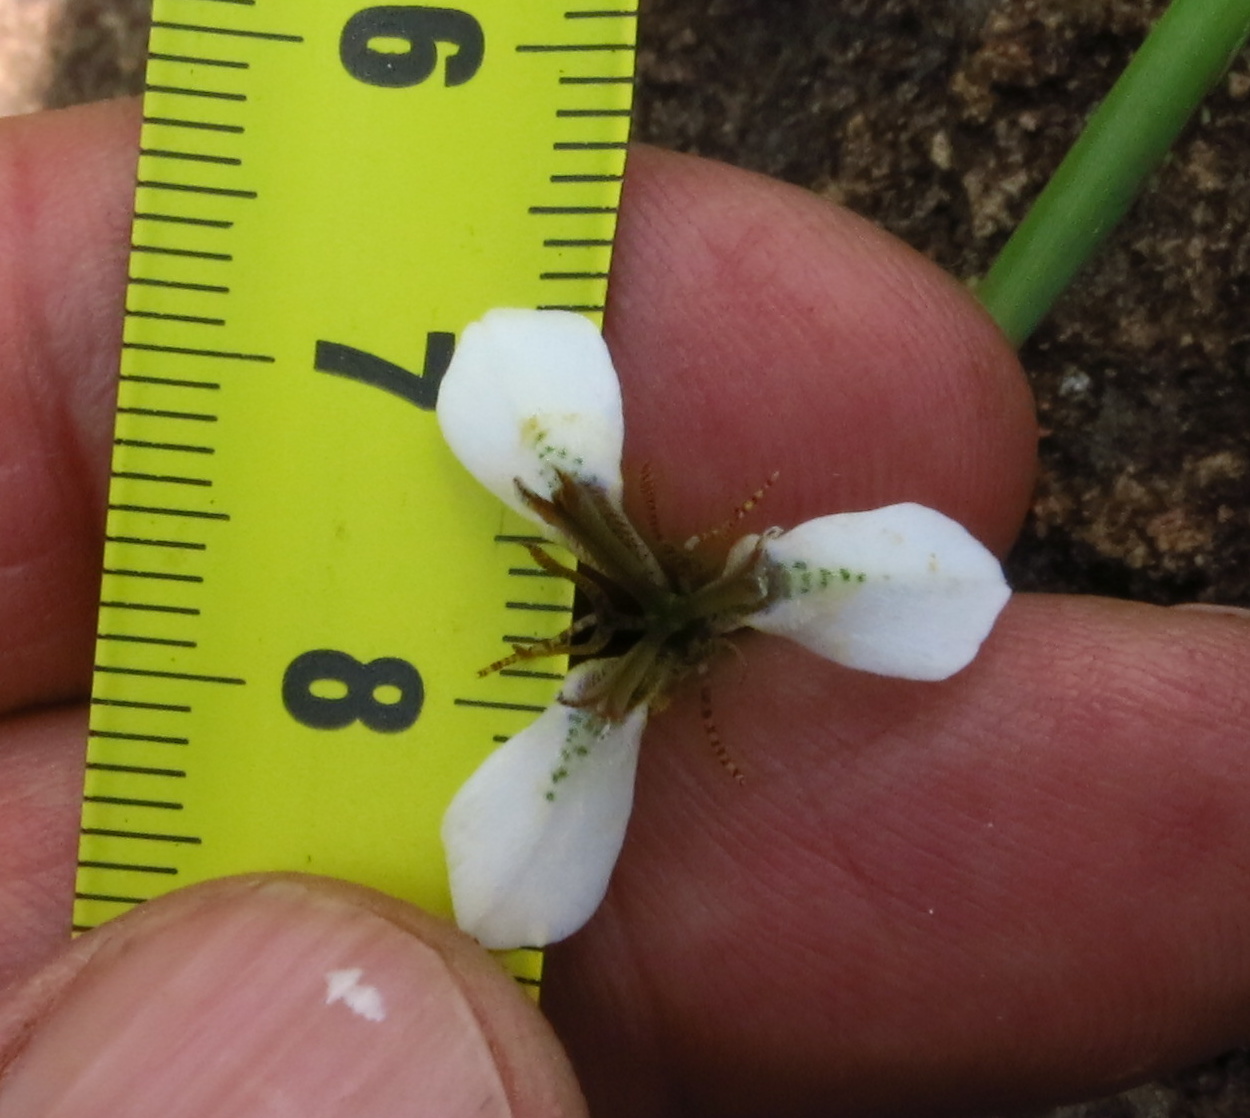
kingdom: Plantae
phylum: Tracheophyta
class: Liliopsida
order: Asparagales
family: Iridaceae
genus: Moraea
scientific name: Moraea brevistyla
